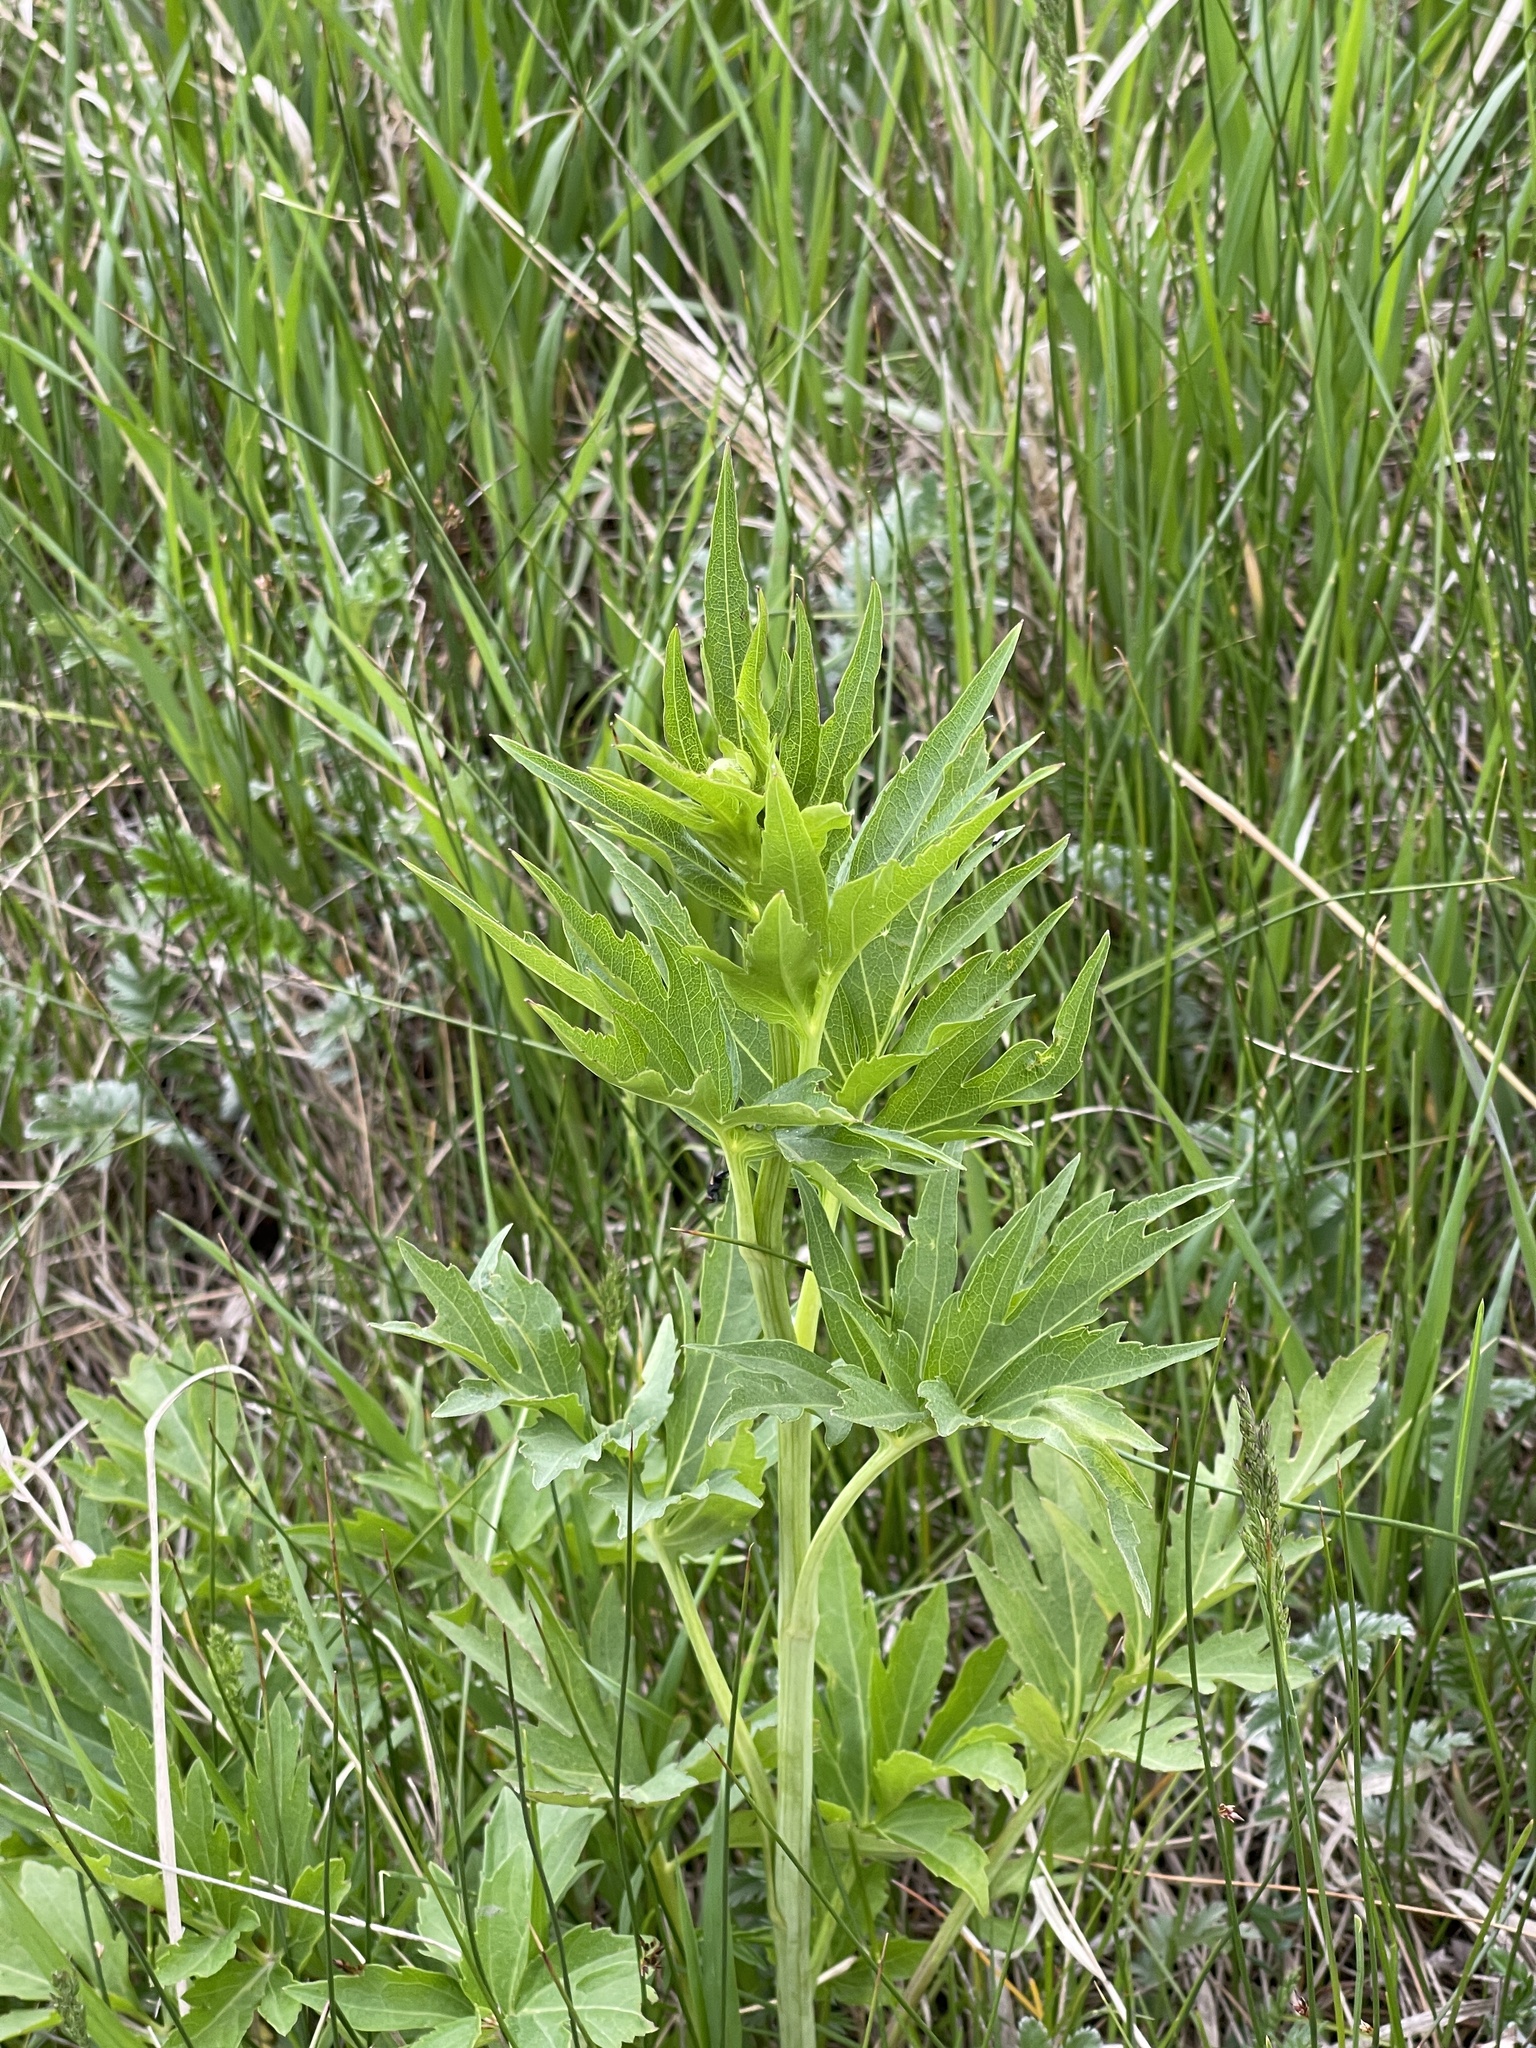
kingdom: Plantae
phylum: Tracheophyta
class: Magnoliopsida
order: Asterales
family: Asteraceae
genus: Rudbeckia
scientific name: Rudbeckia laciniata
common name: Coneflower
